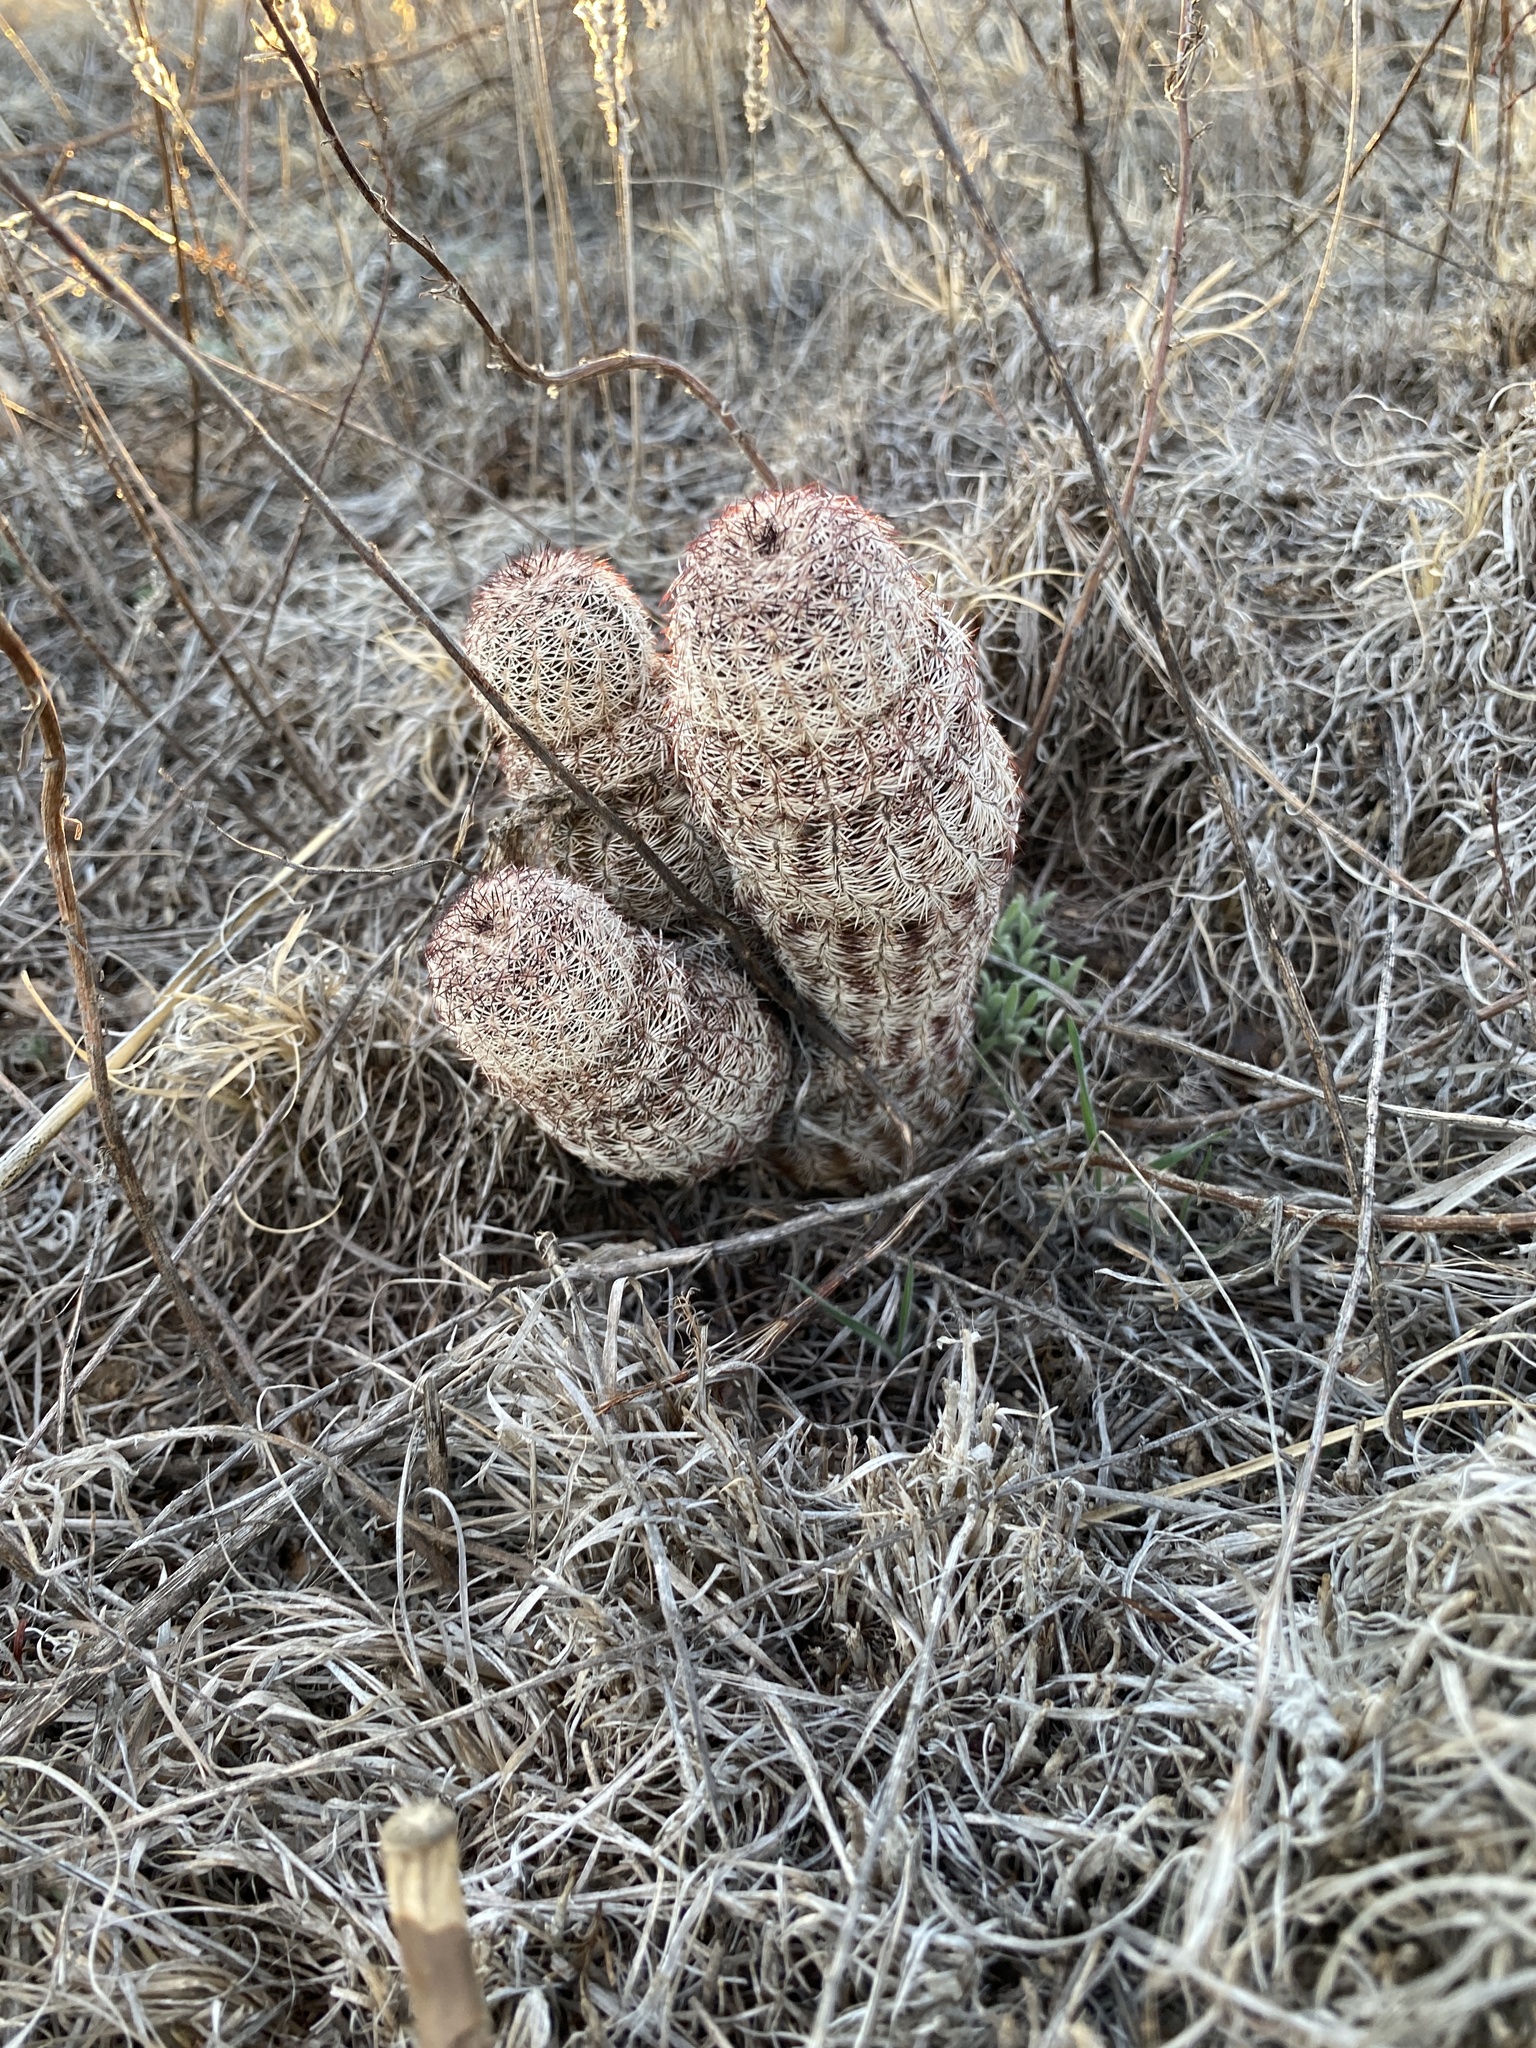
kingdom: Plantae
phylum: Tracheophyta
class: Magnoliopsida
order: Caryophyllales
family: Cactaceae
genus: Echinocereus
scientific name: Echinocereus reichenbachii
